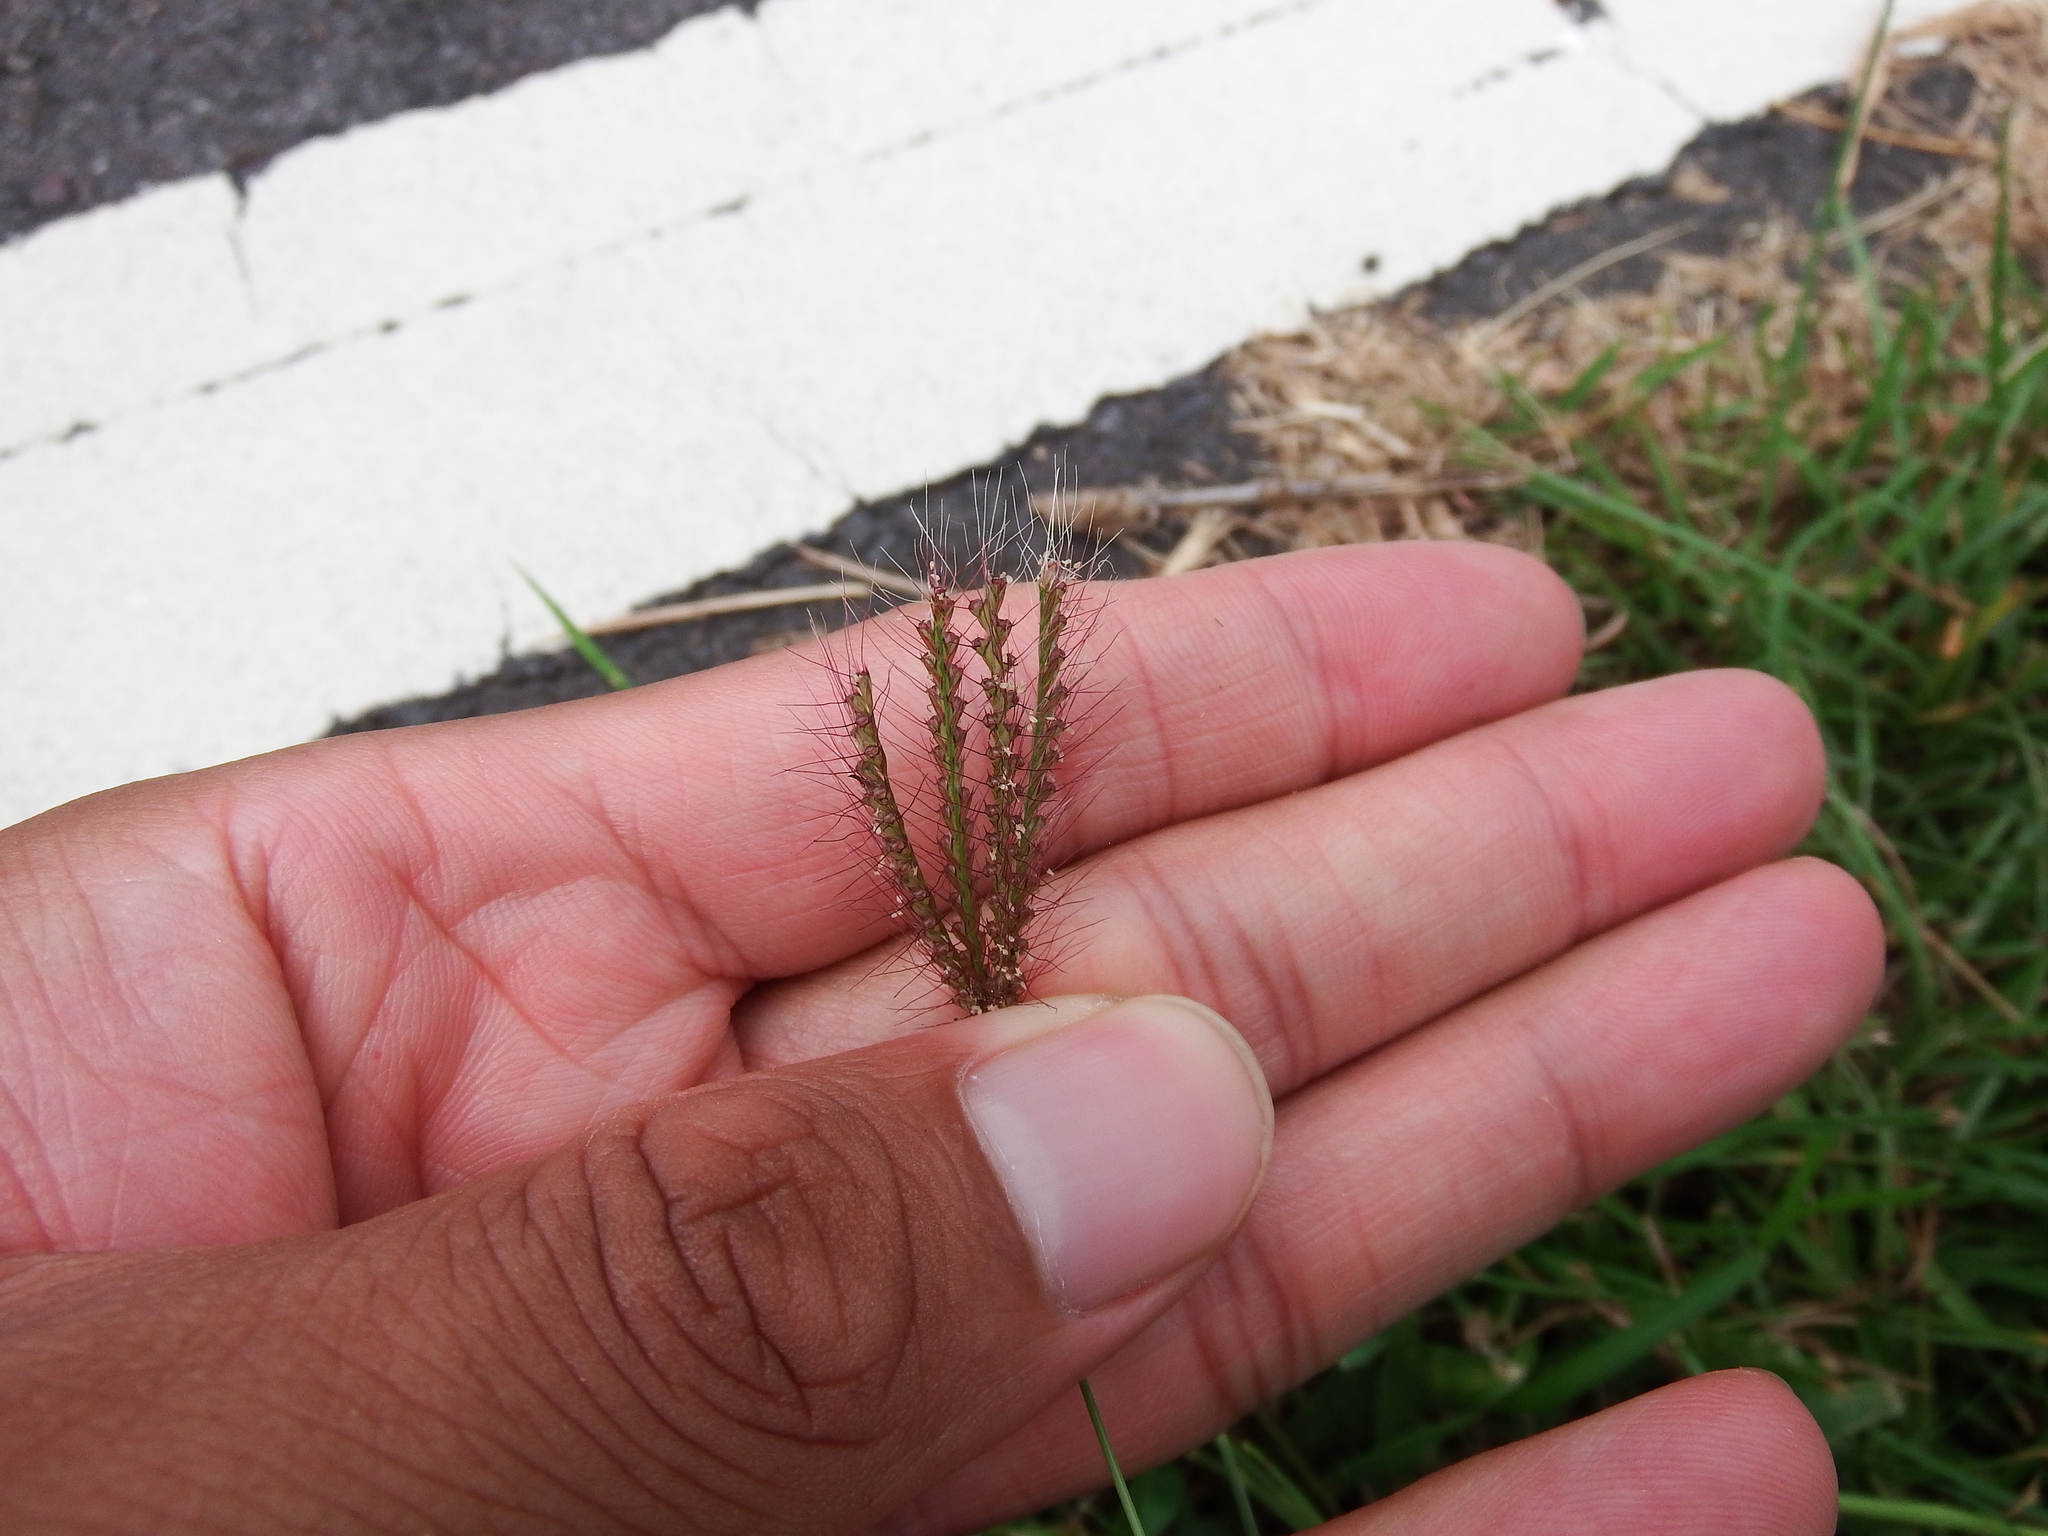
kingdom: Plantae
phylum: Tracheophyta
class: Liliopsida
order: Poales
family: Poaceae
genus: Chloris
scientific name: Chloris barbata
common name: Swollen fingergrass
